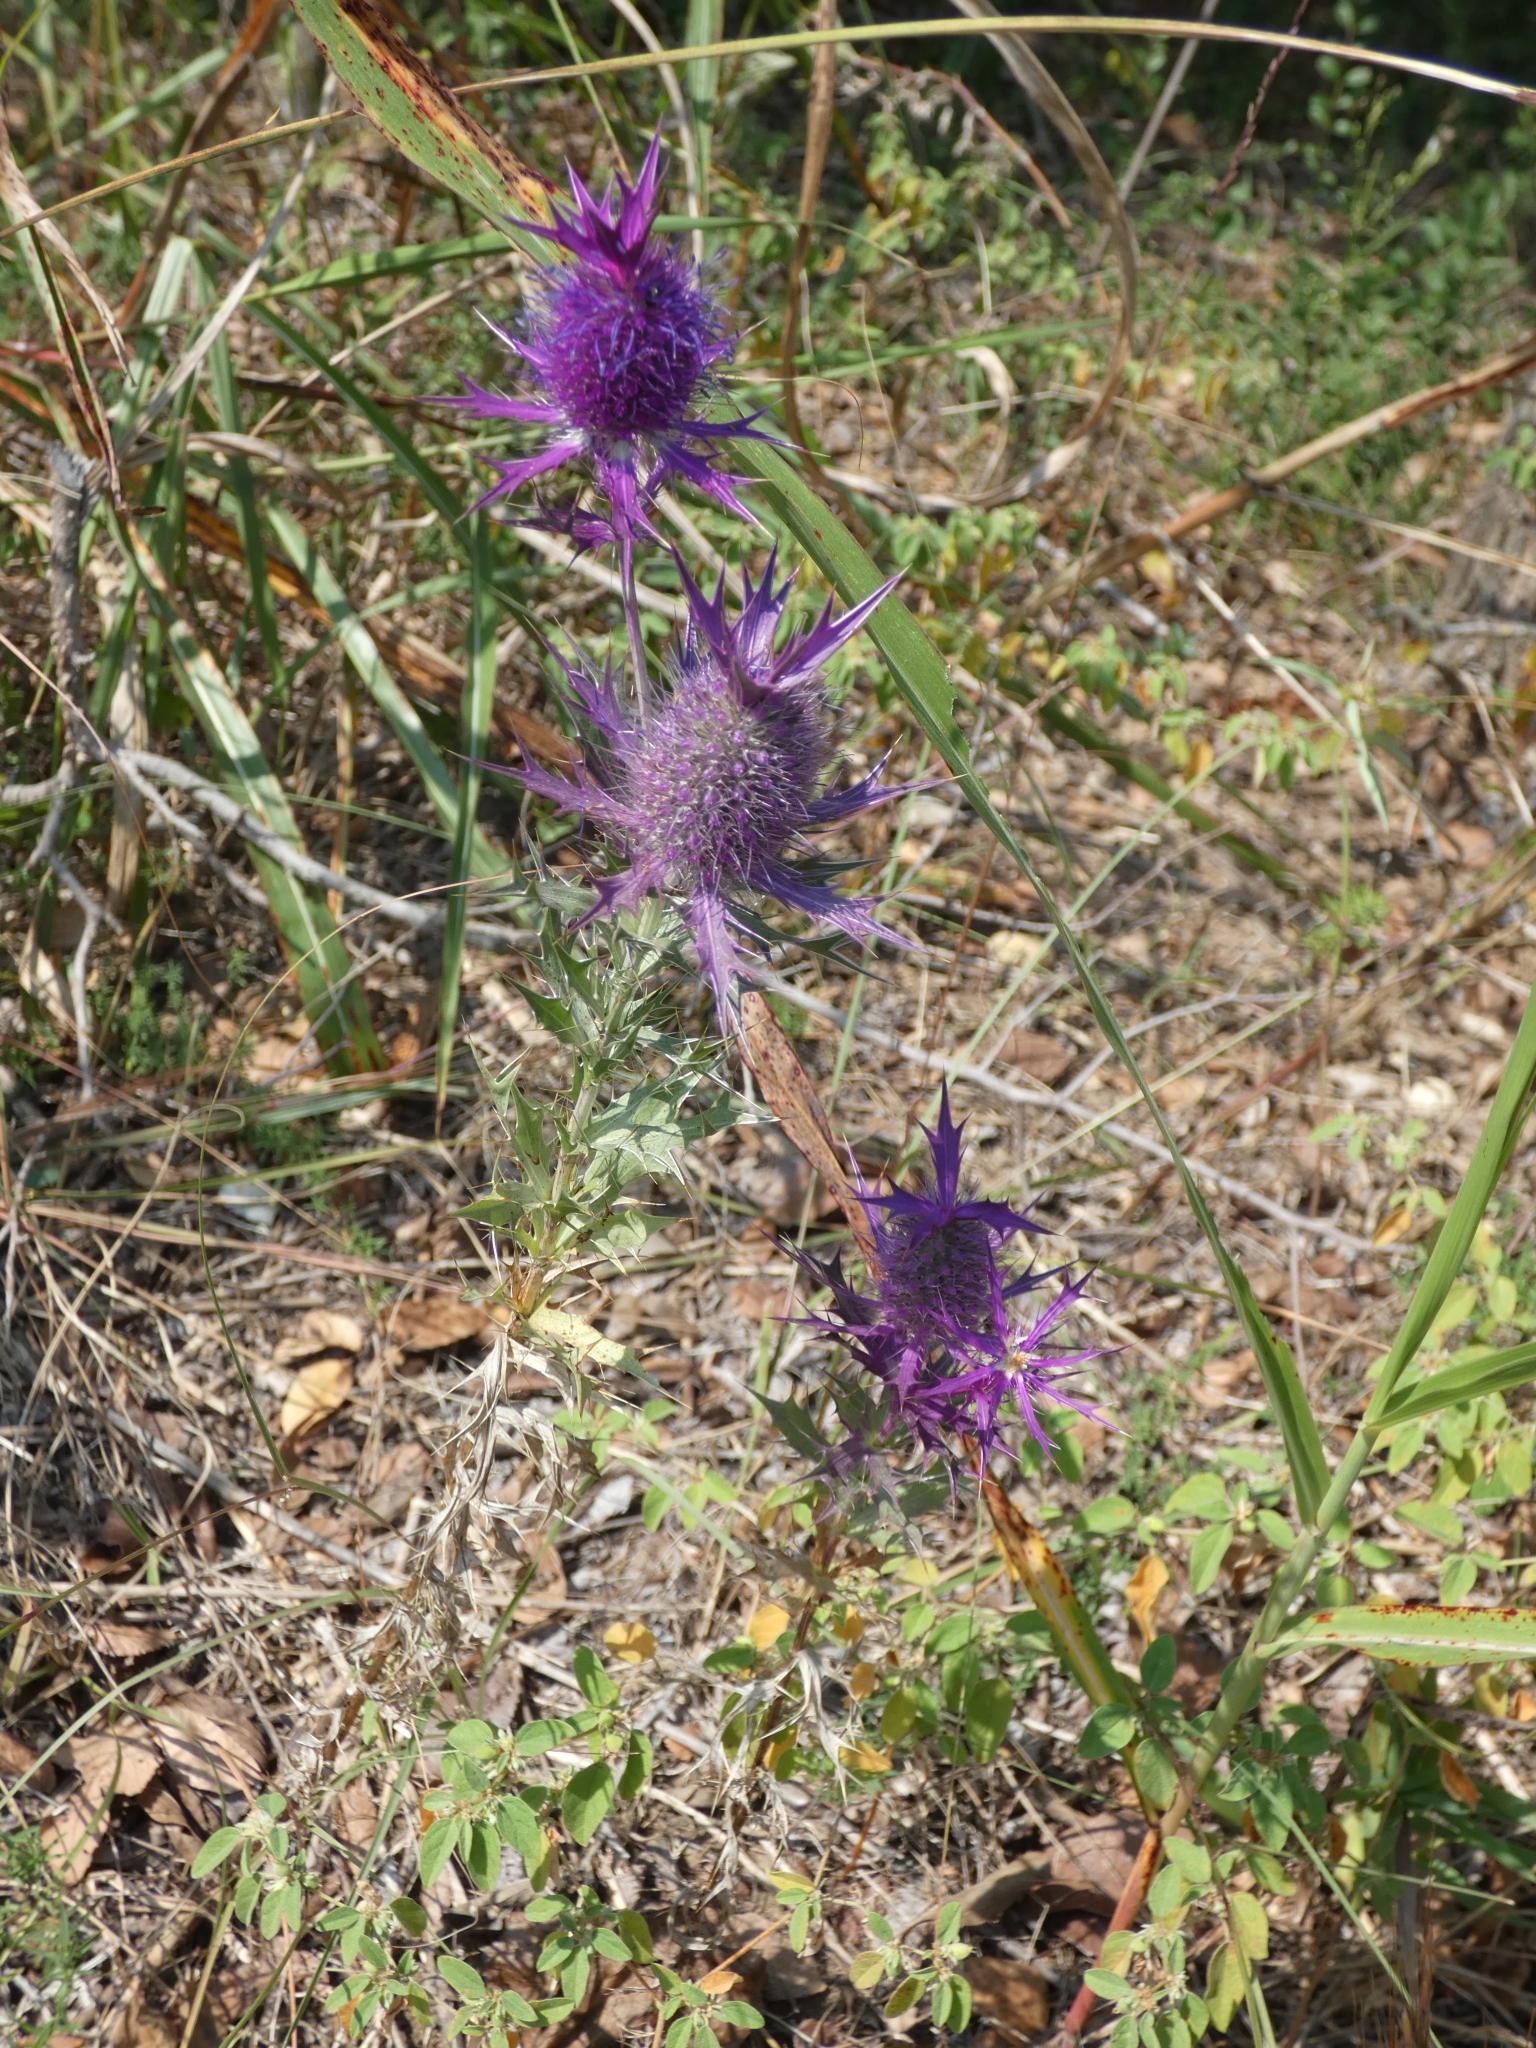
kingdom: Plantae
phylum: Tracheophyta
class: Magnoliopsida
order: Apiales
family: Apiaceae
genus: Eryngium
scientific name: Eryngium leavenworthii
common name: Leavenworth's eryngo
